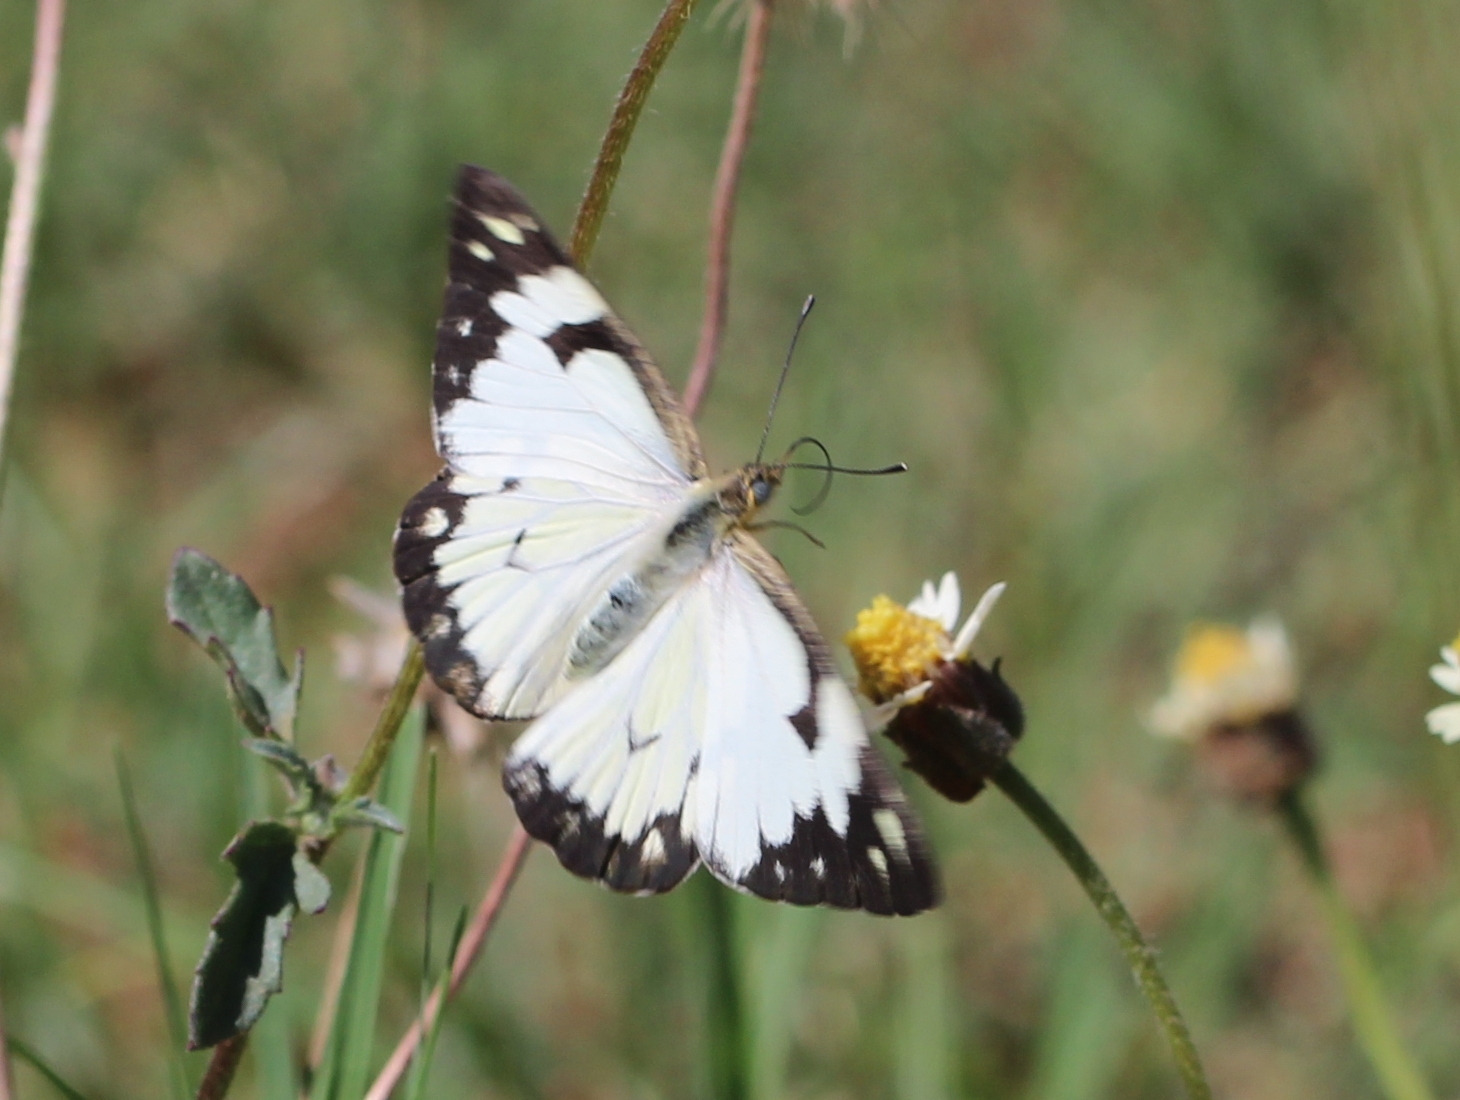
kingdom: Animalia
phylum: Arthropoda
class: Insecta
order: Lepidoptera
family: Pieridae
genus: Belenois
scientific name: Belenois aurota
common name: Brown-veined white
